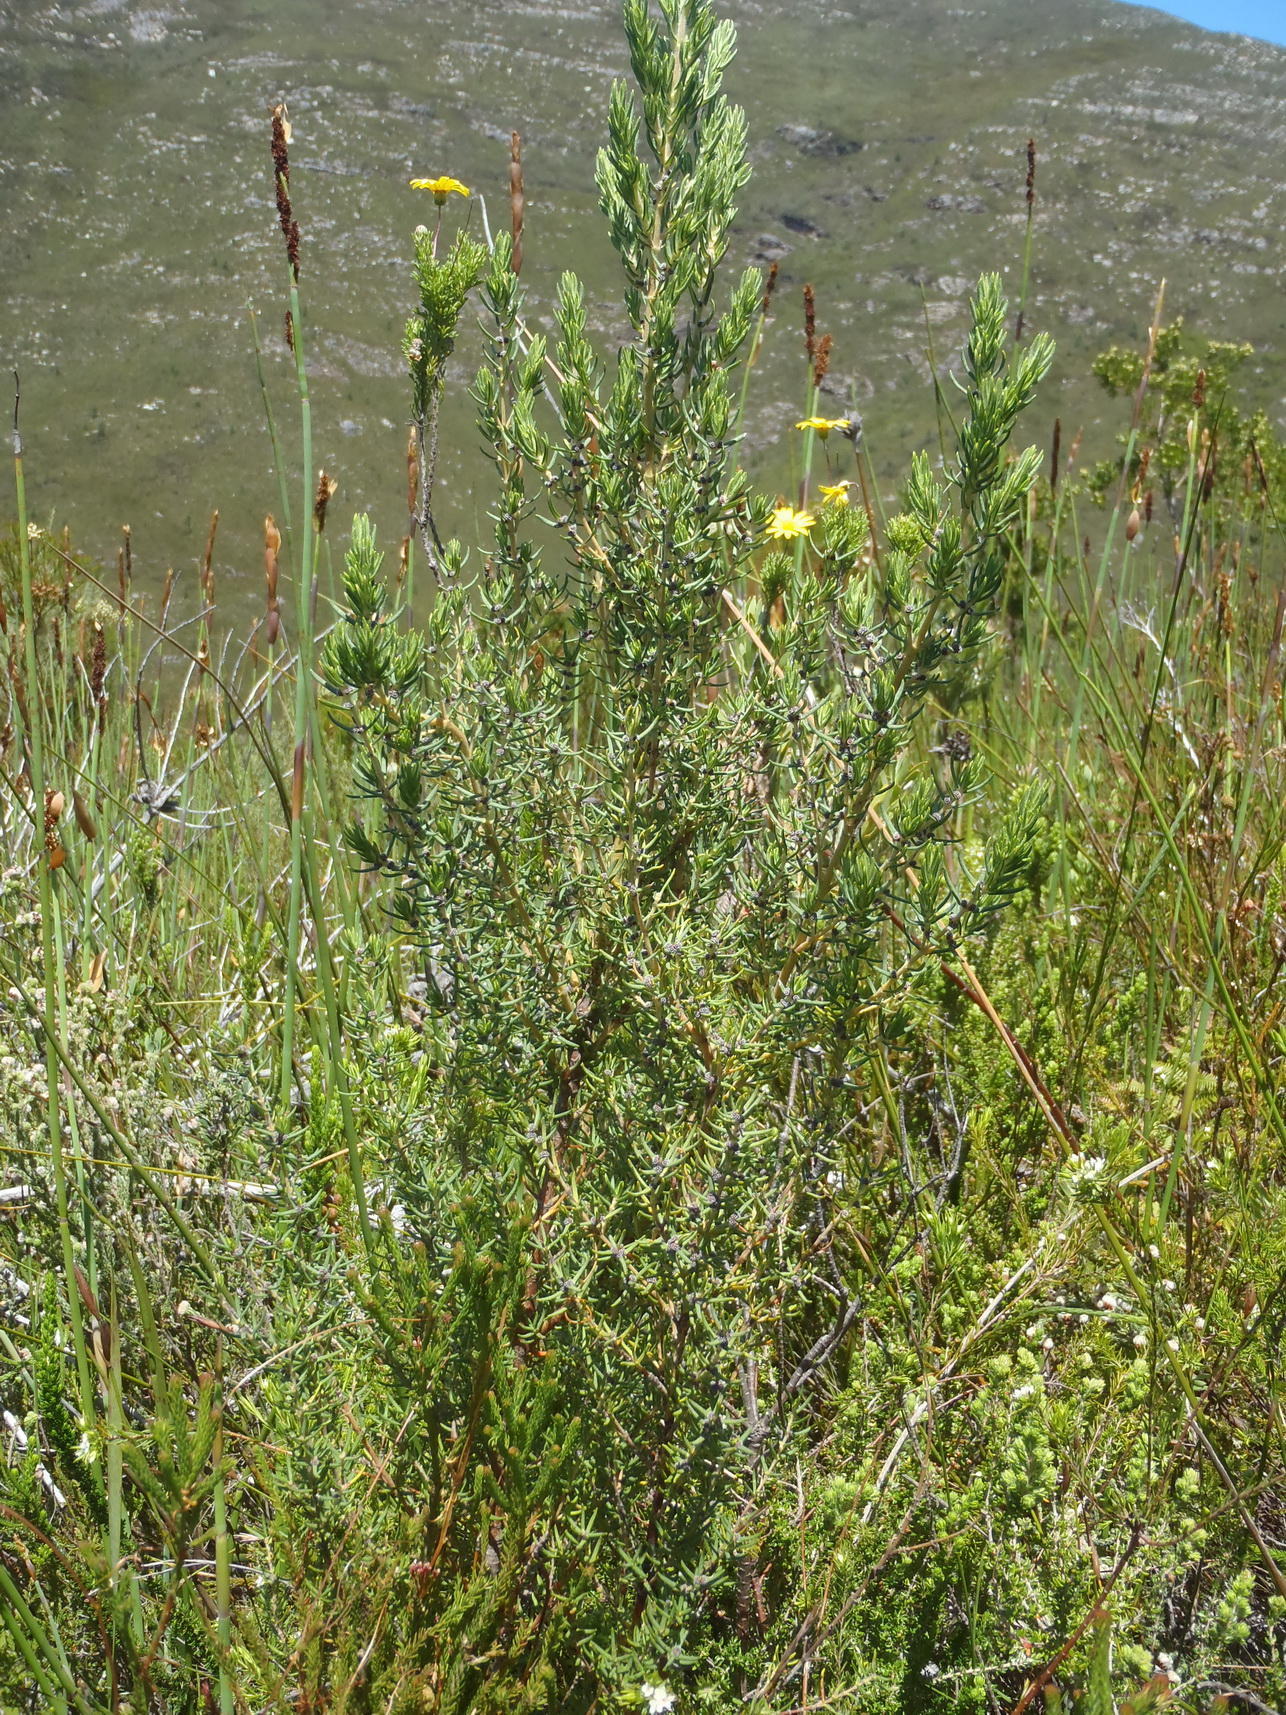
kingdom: Plantae
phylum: Tracheophyta
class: Magnoliopsida
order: Cornales
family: Grubbiaceae
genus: Grubbia
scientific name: Grubbia rosmarinifolia
